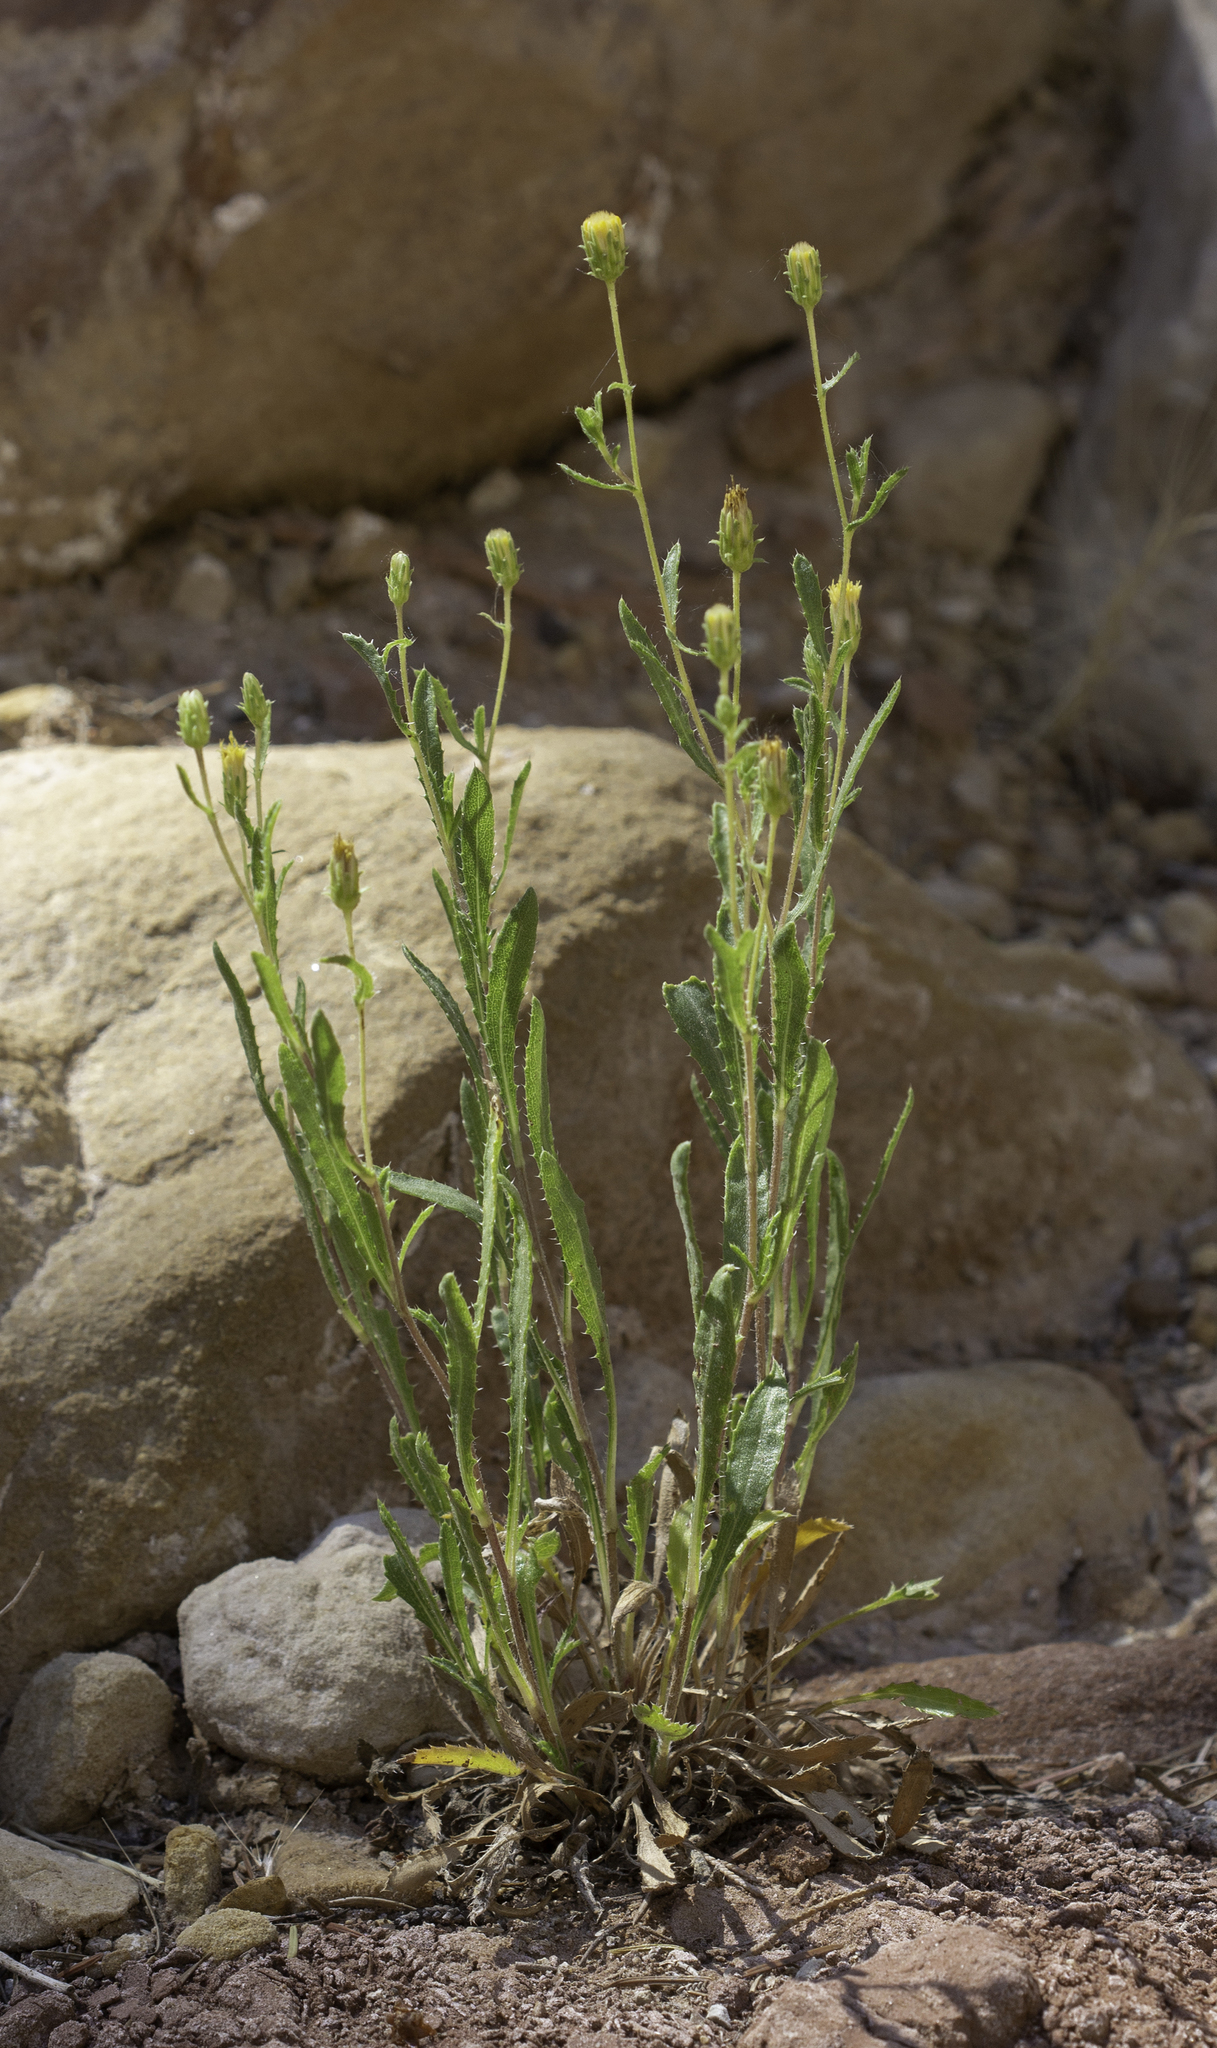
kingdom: Plantae
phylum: Tracheophyta
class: Magnoliopsida
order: Asterales
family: Asteraceae
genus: Xanthisma
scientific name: Xanthisma grindelioides
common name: Goldenweed
